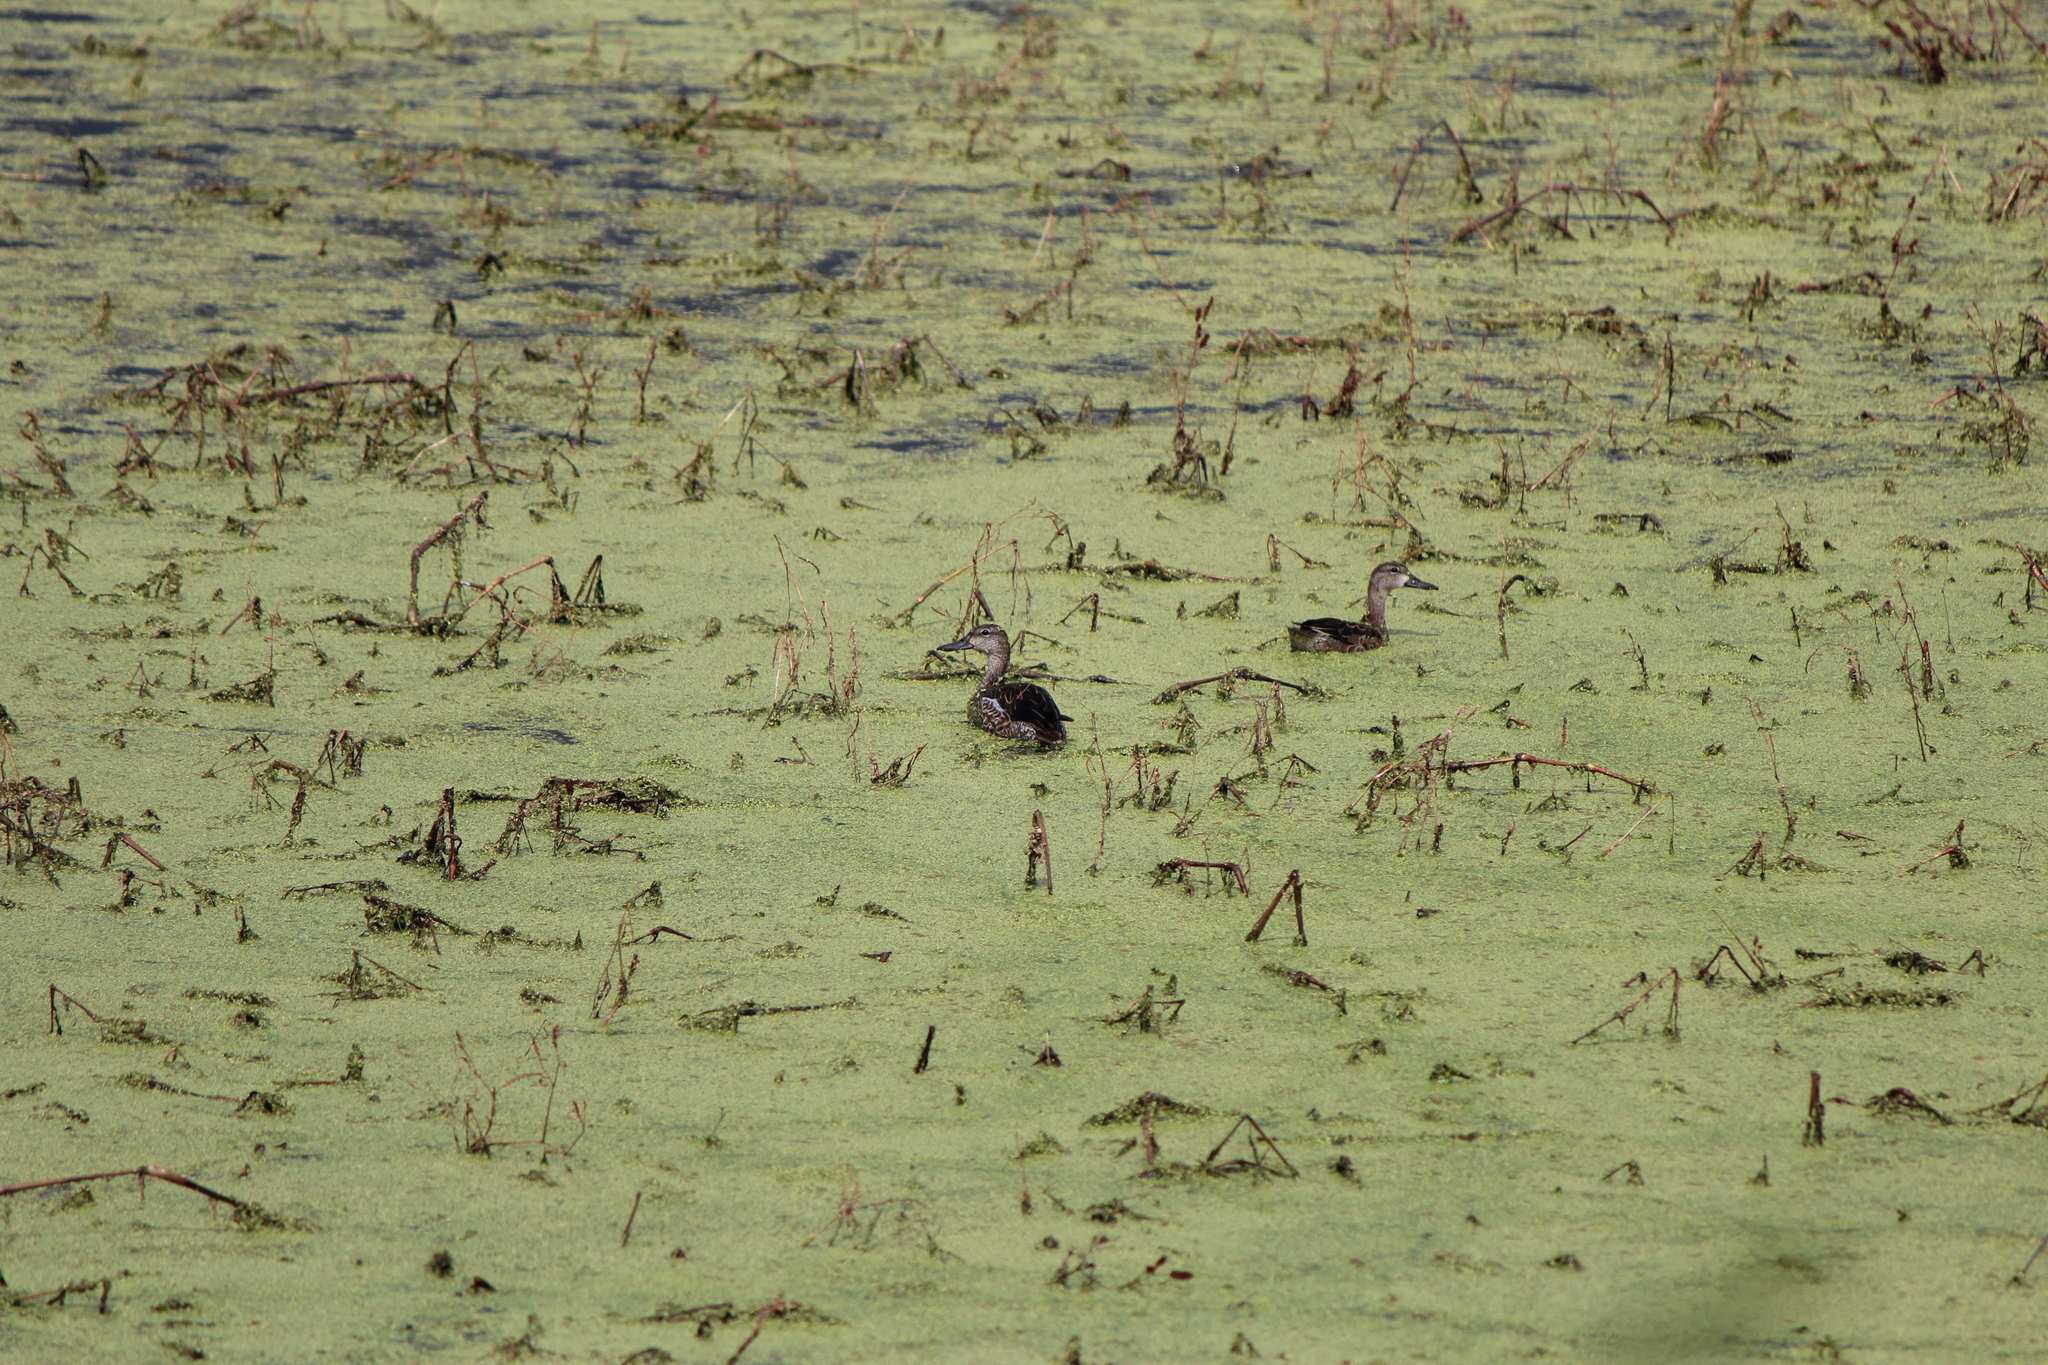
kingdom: Animalia
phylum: Chordata
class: Aves
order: Anseriformes
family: Anatidae
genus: Spatula
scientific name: Spatula discors
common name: Blue-winged teal
